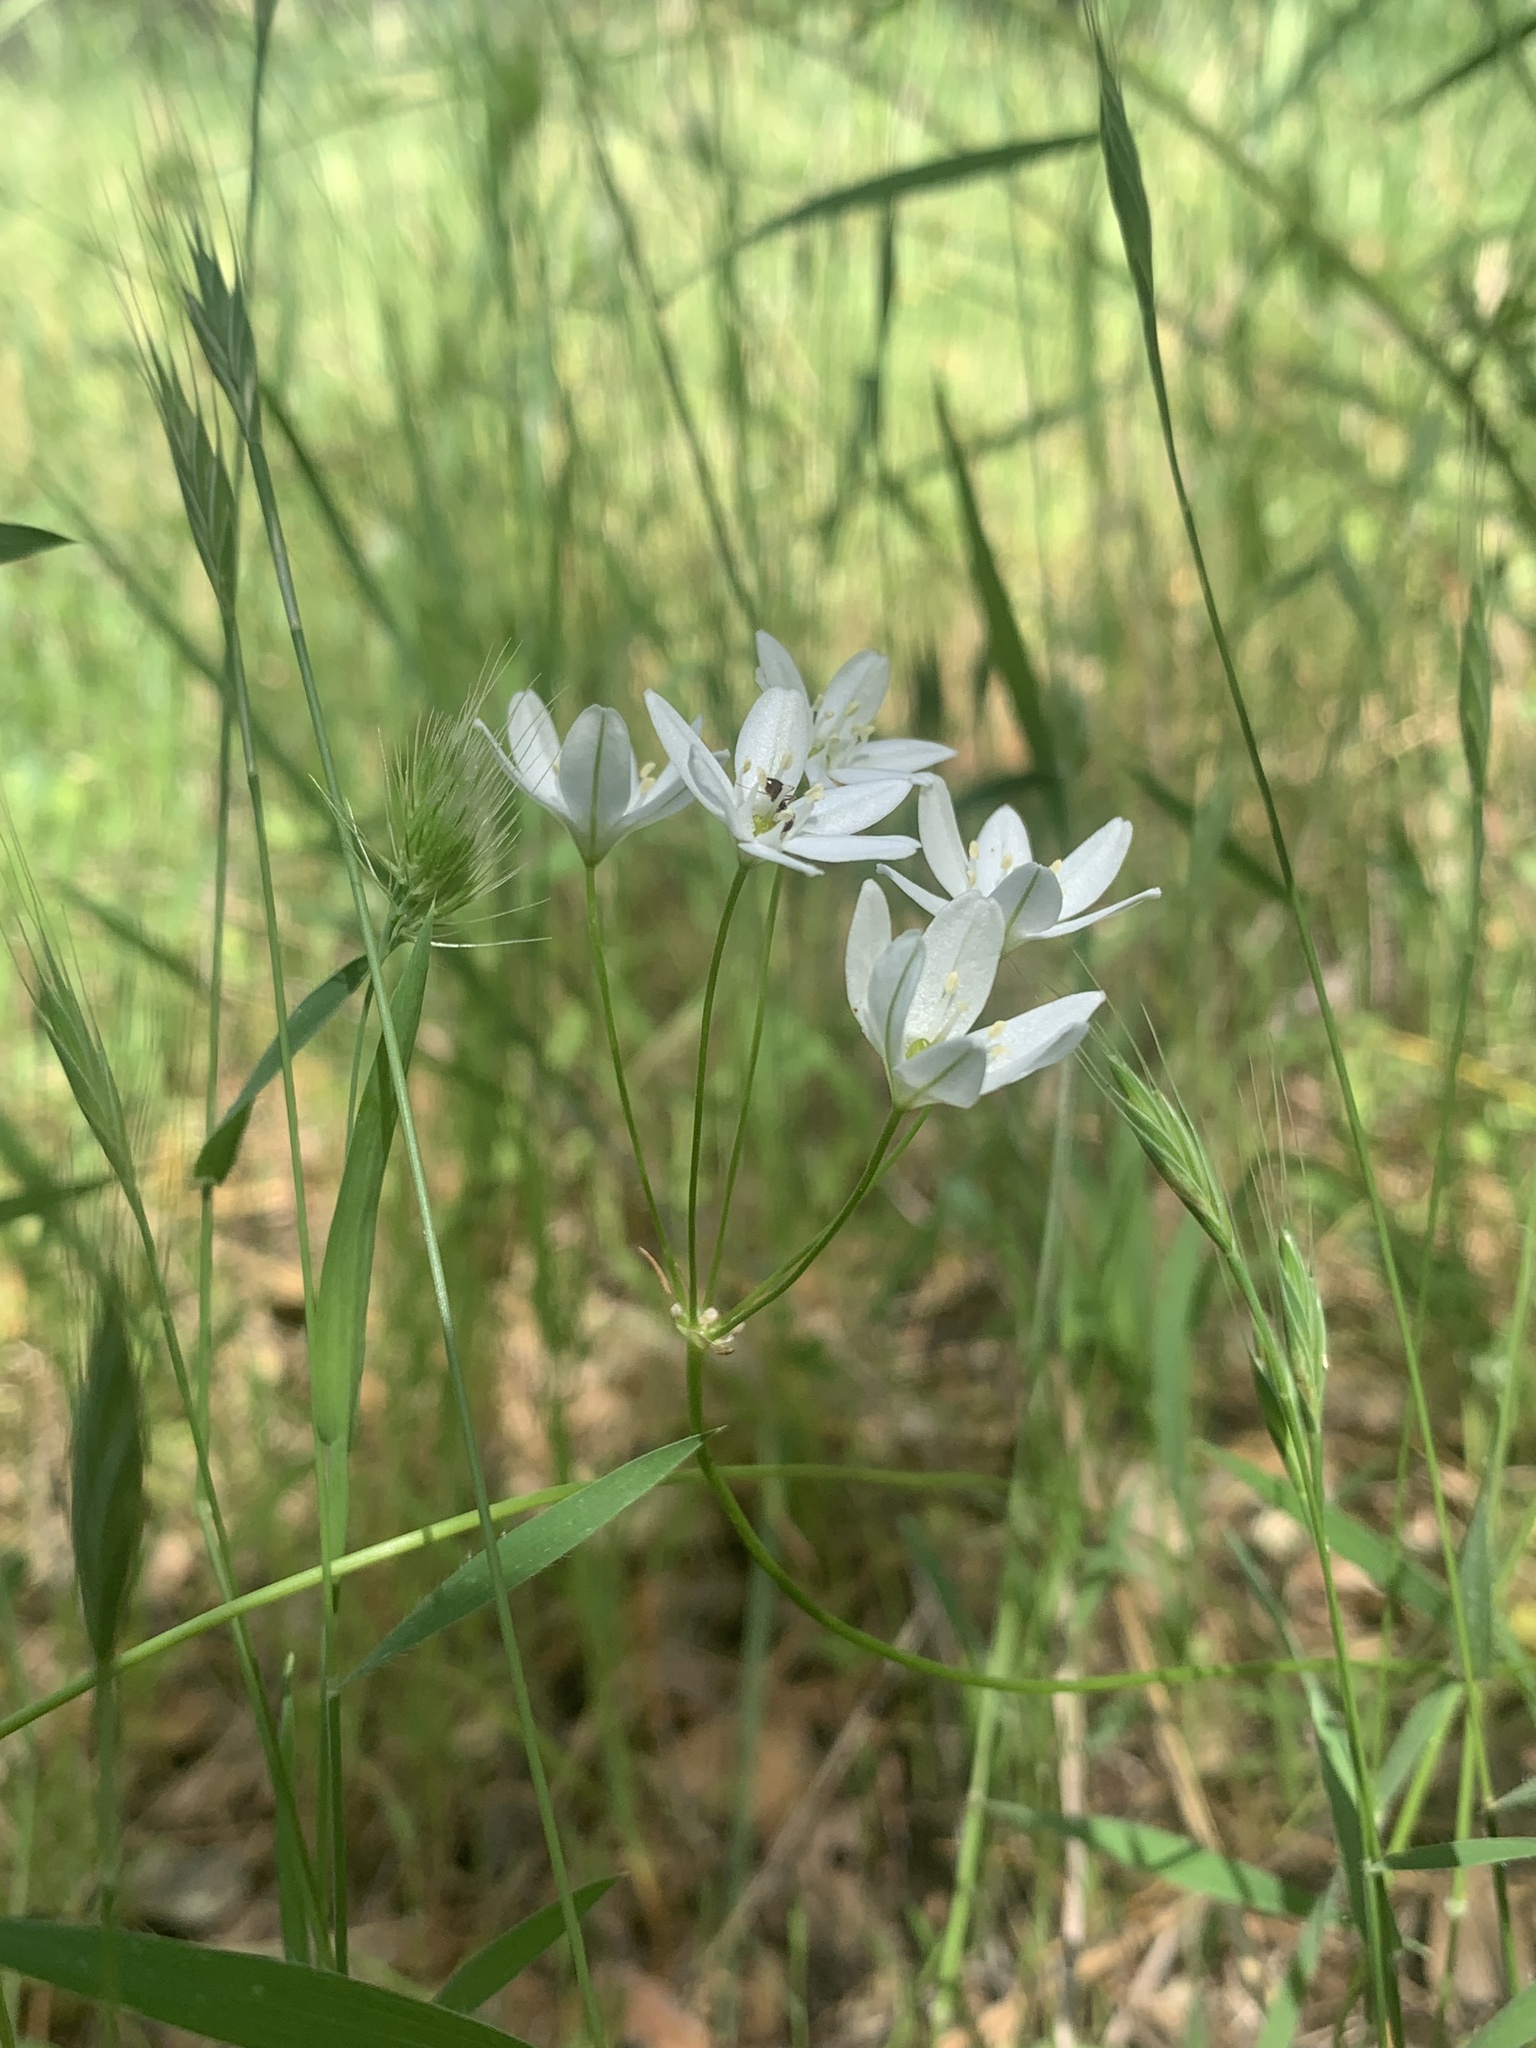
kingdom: Plantae
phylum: Tracheophyta
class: Liliopsida
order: Asparagales
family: Asparagaceae
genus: Triteleia
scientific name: Triteleia hyacinthina
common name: White brodiaea
